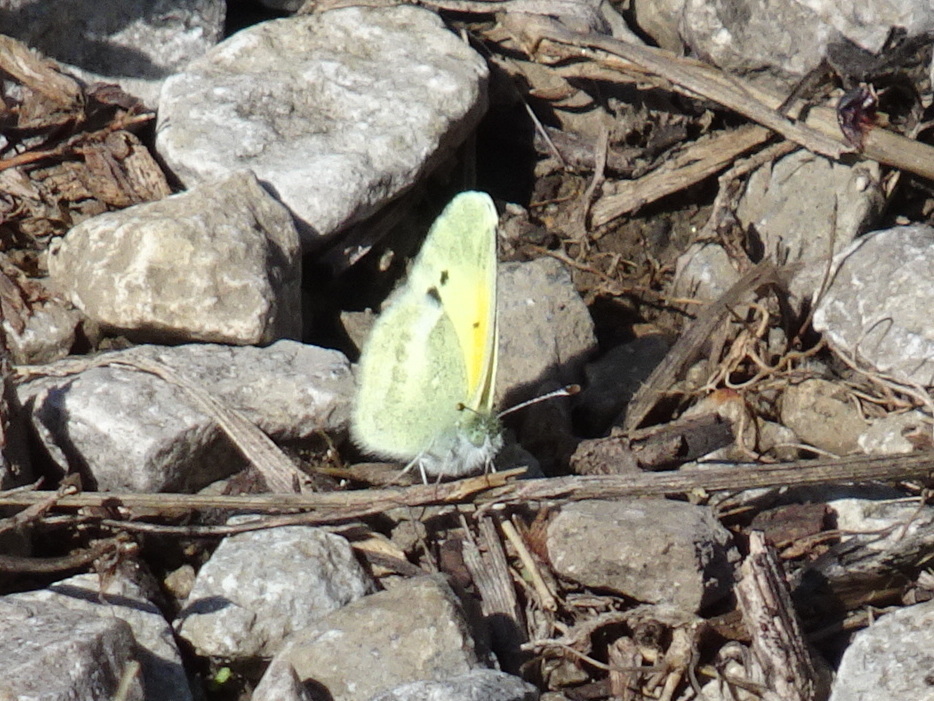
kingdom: Animalia
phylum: Arthropoda
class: Insecta
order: Lepidoptera
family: Pieridae
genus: Nathalis
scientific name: Nathalis iole
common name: Dainty sulphur
